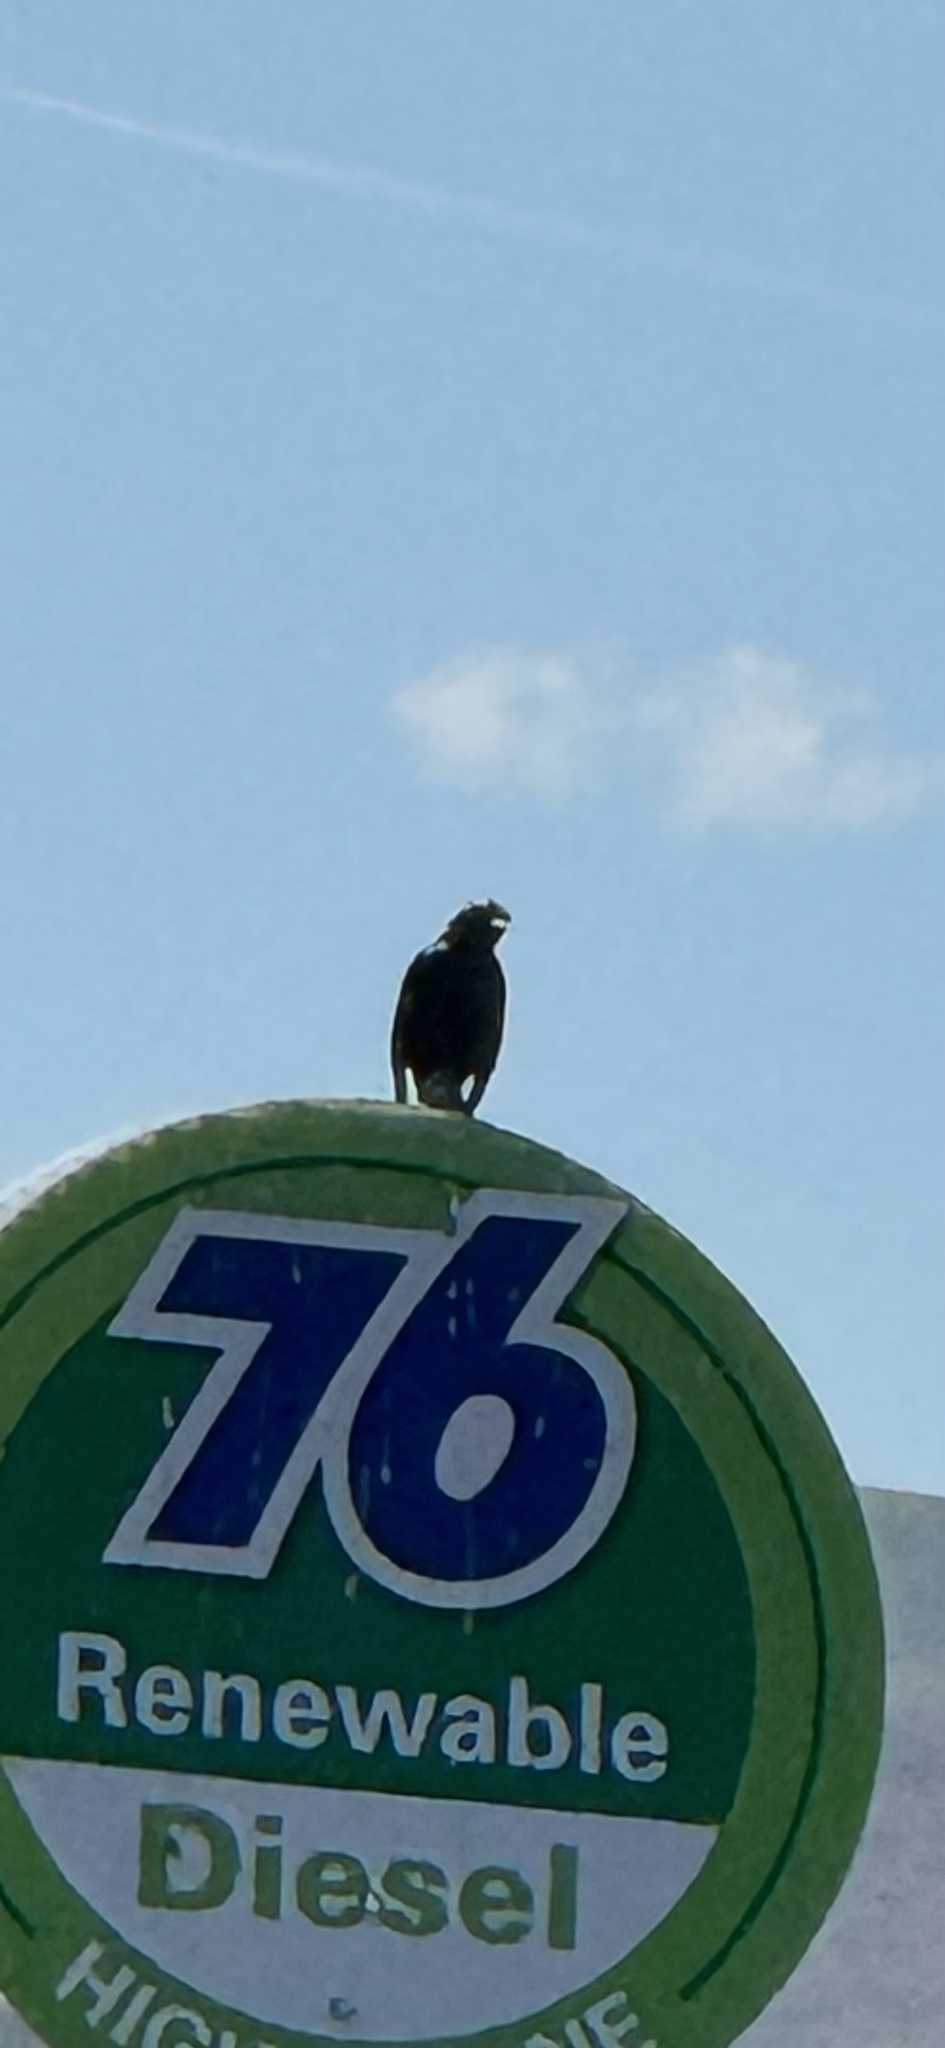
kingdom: Animalia
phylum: Chordata
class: Aves
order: Passeriformes
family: Corvidae
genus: Corvus
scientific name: Corvus brachyrhynchos
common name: American crow
